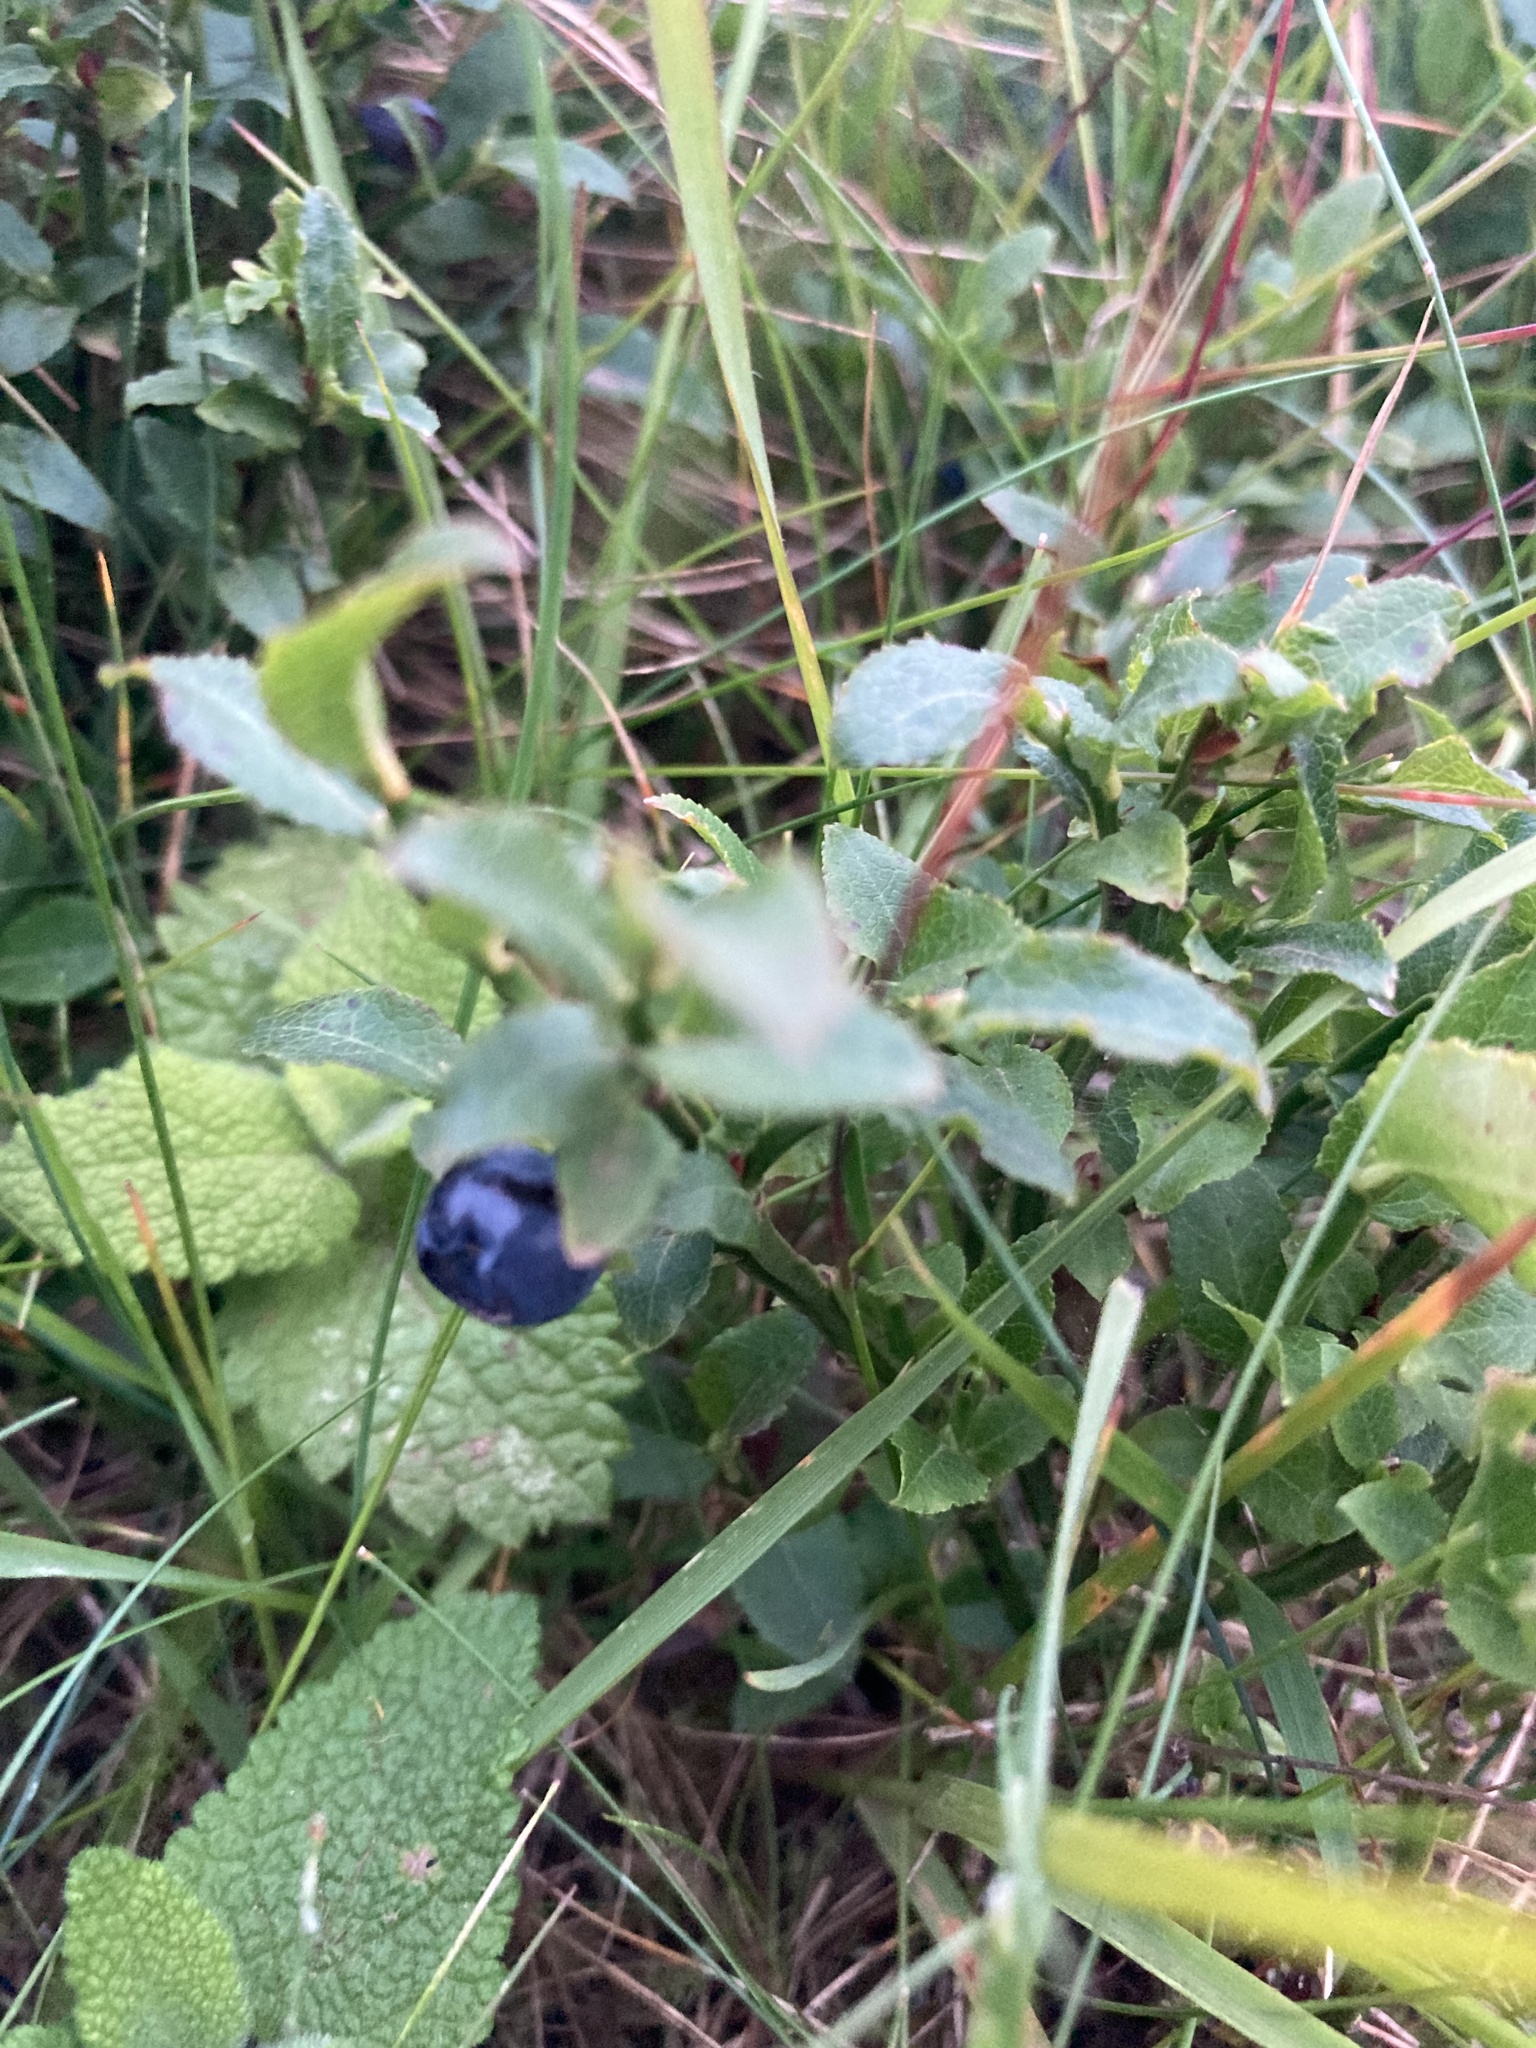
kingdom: Plantae
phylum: Tracheophyta
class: Magnoliopsida
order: Ericales
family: Ericaceae
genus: Vaccinium
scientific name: Vaccinium myrtillus
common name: Bilberry
